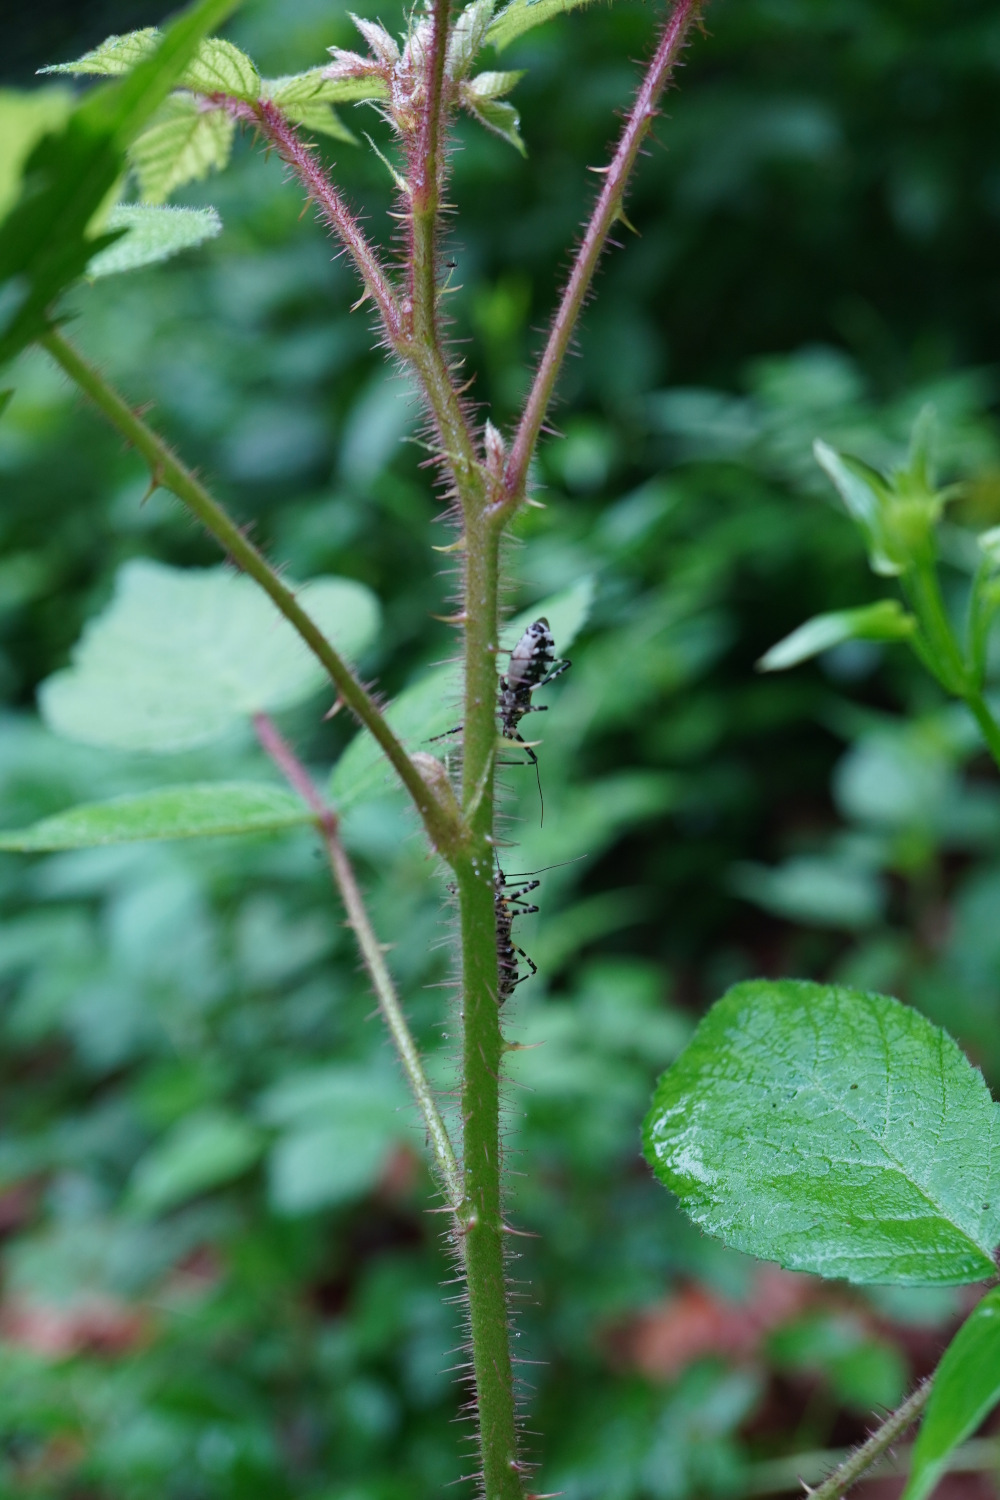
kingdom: Animalia
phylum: Arthropoda
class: Insecta
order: Hemiptera
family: Reduviidae
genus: Sphedanolestes
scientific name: Sphedanolestes impressicollis
